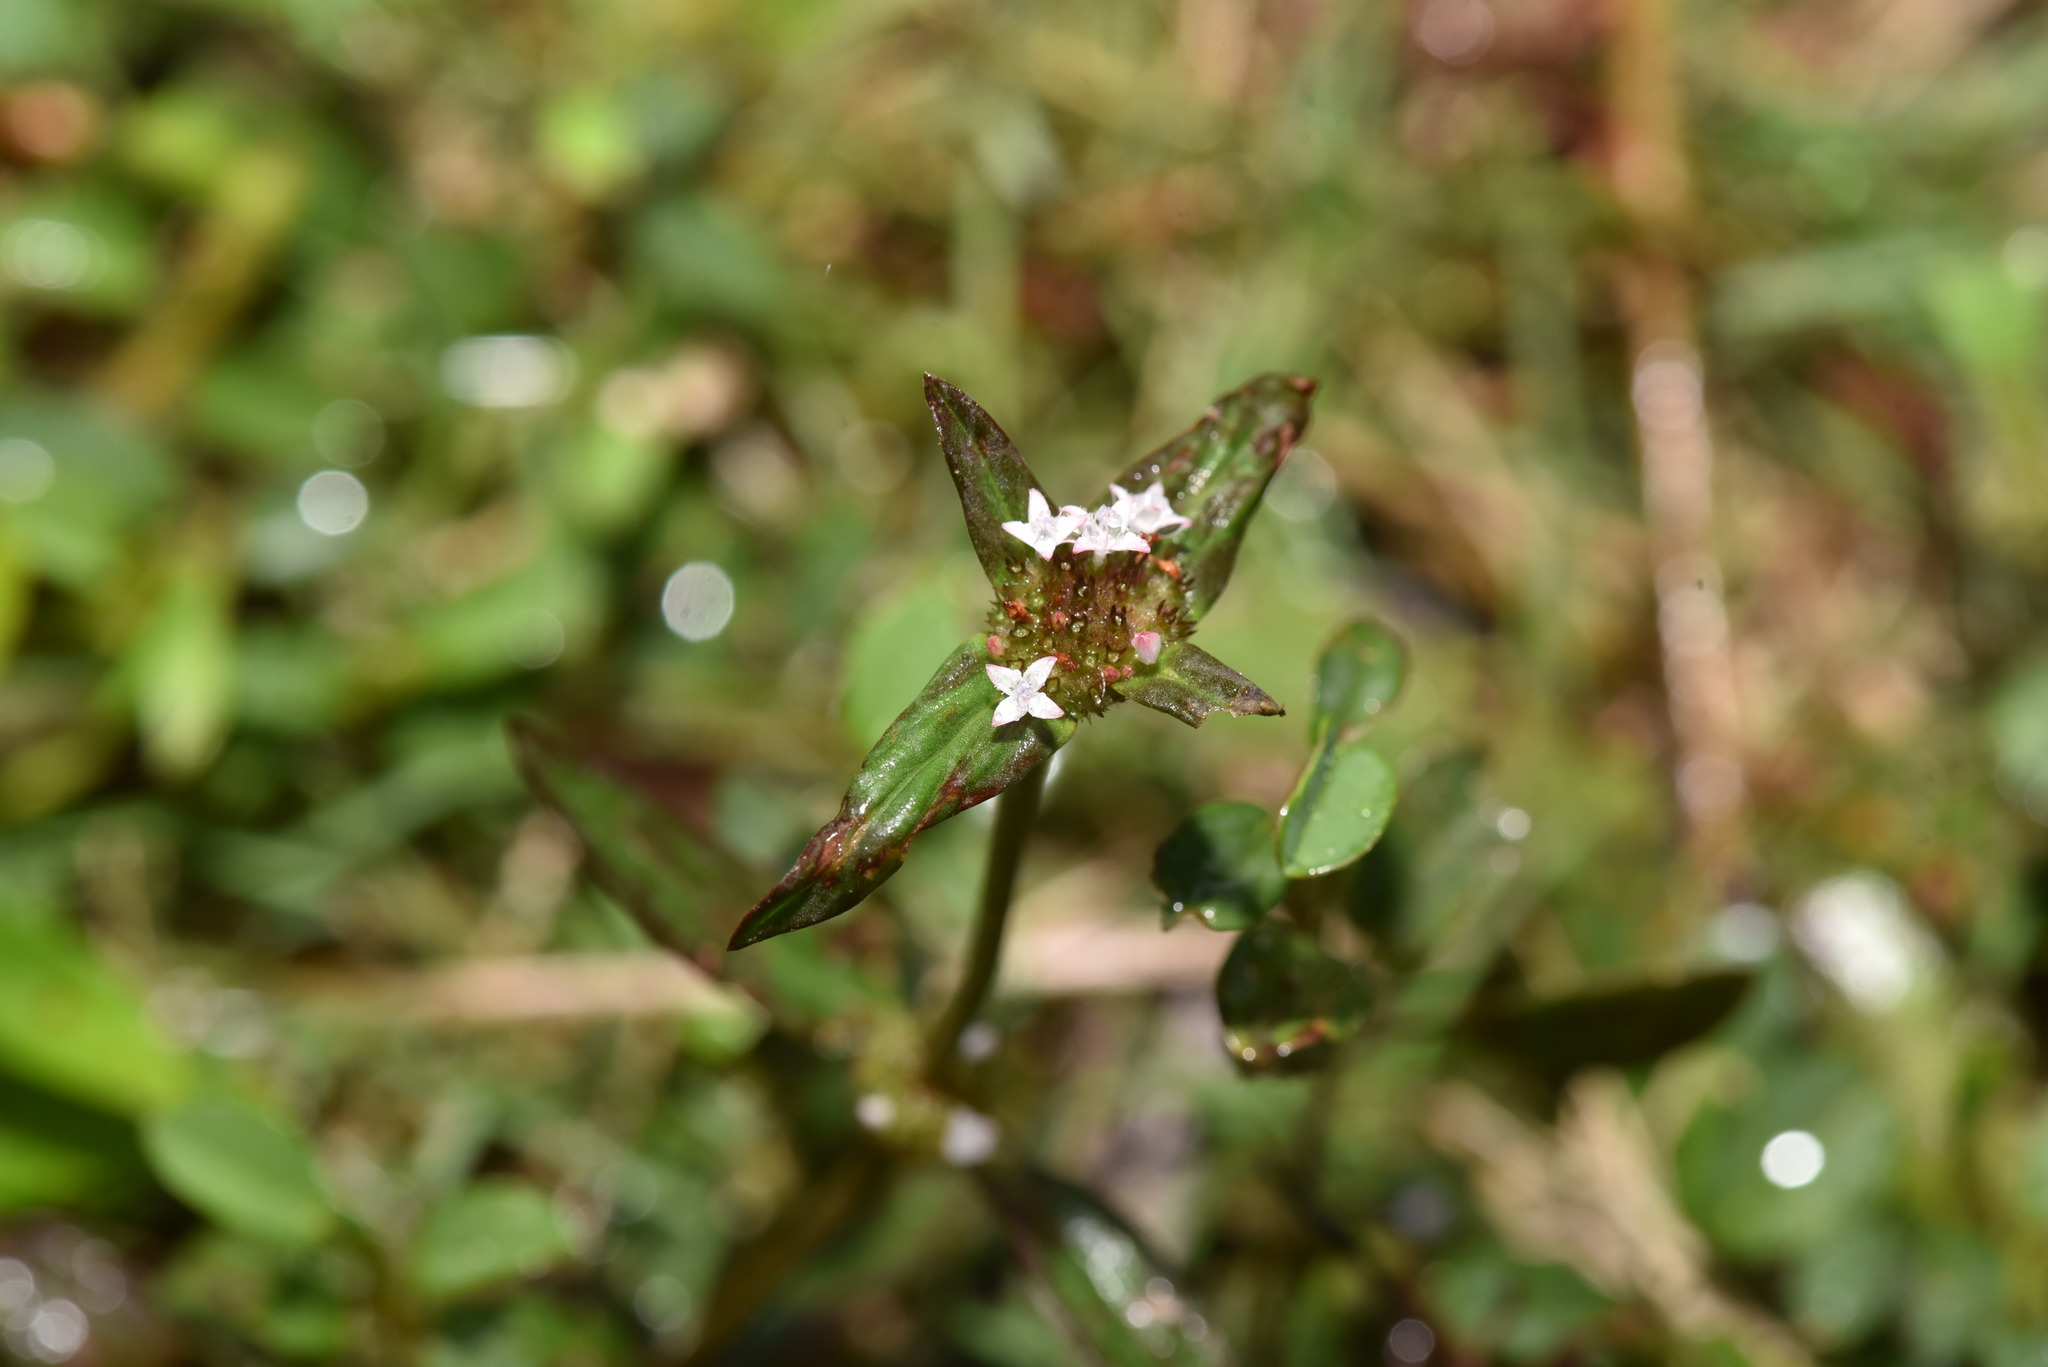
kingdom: Plantae
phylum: Tracheophyta
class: Magnoliopsida
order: Gentianales
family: Rubiaceae
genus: Spermacoce
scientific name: Spermacoce remota
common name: Woodland false buttonweed
